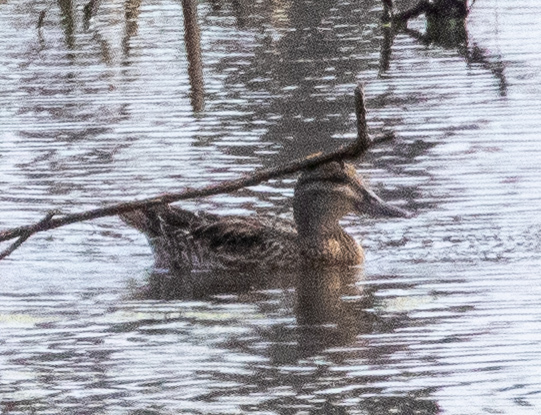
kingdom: Animalia
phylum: Chordata
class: Aves
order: Anseriformes
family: Anatidae
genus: Anas
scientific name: Anas crecca
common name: Eurasian teal
